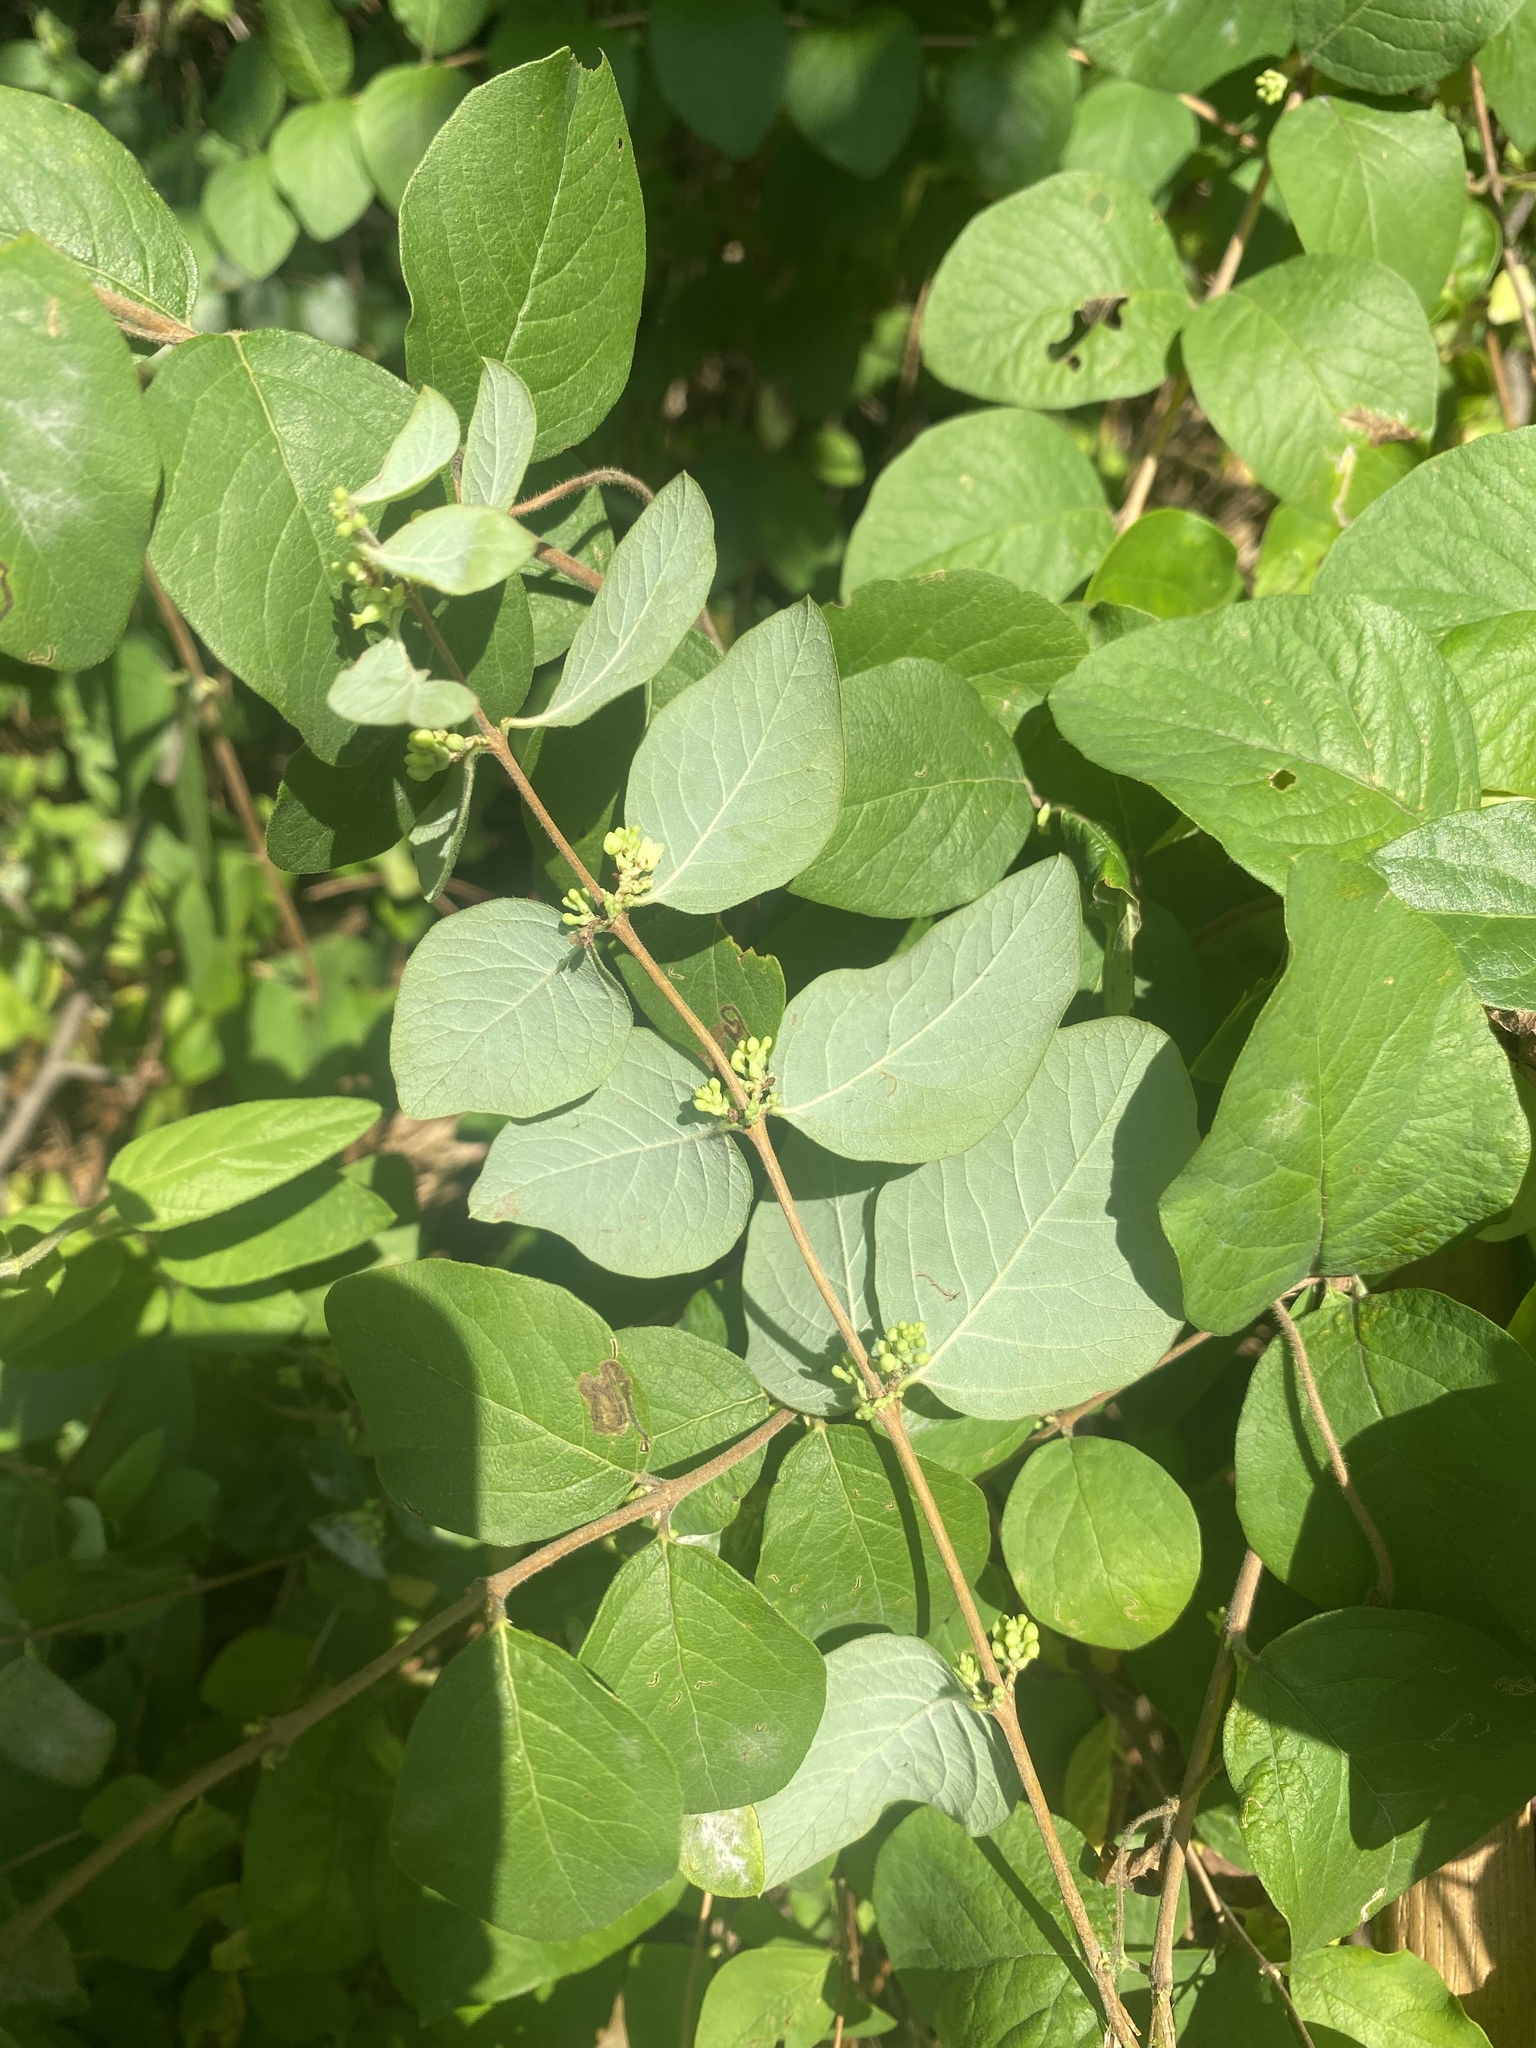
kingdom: Plantae
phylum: Tracheophyta
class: Magnoliopsida
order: Dipsacales
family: Caprifoliaceae
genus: Symphoricarpos
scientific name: Symphoricarpos orbiculatus
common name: Coralberry
